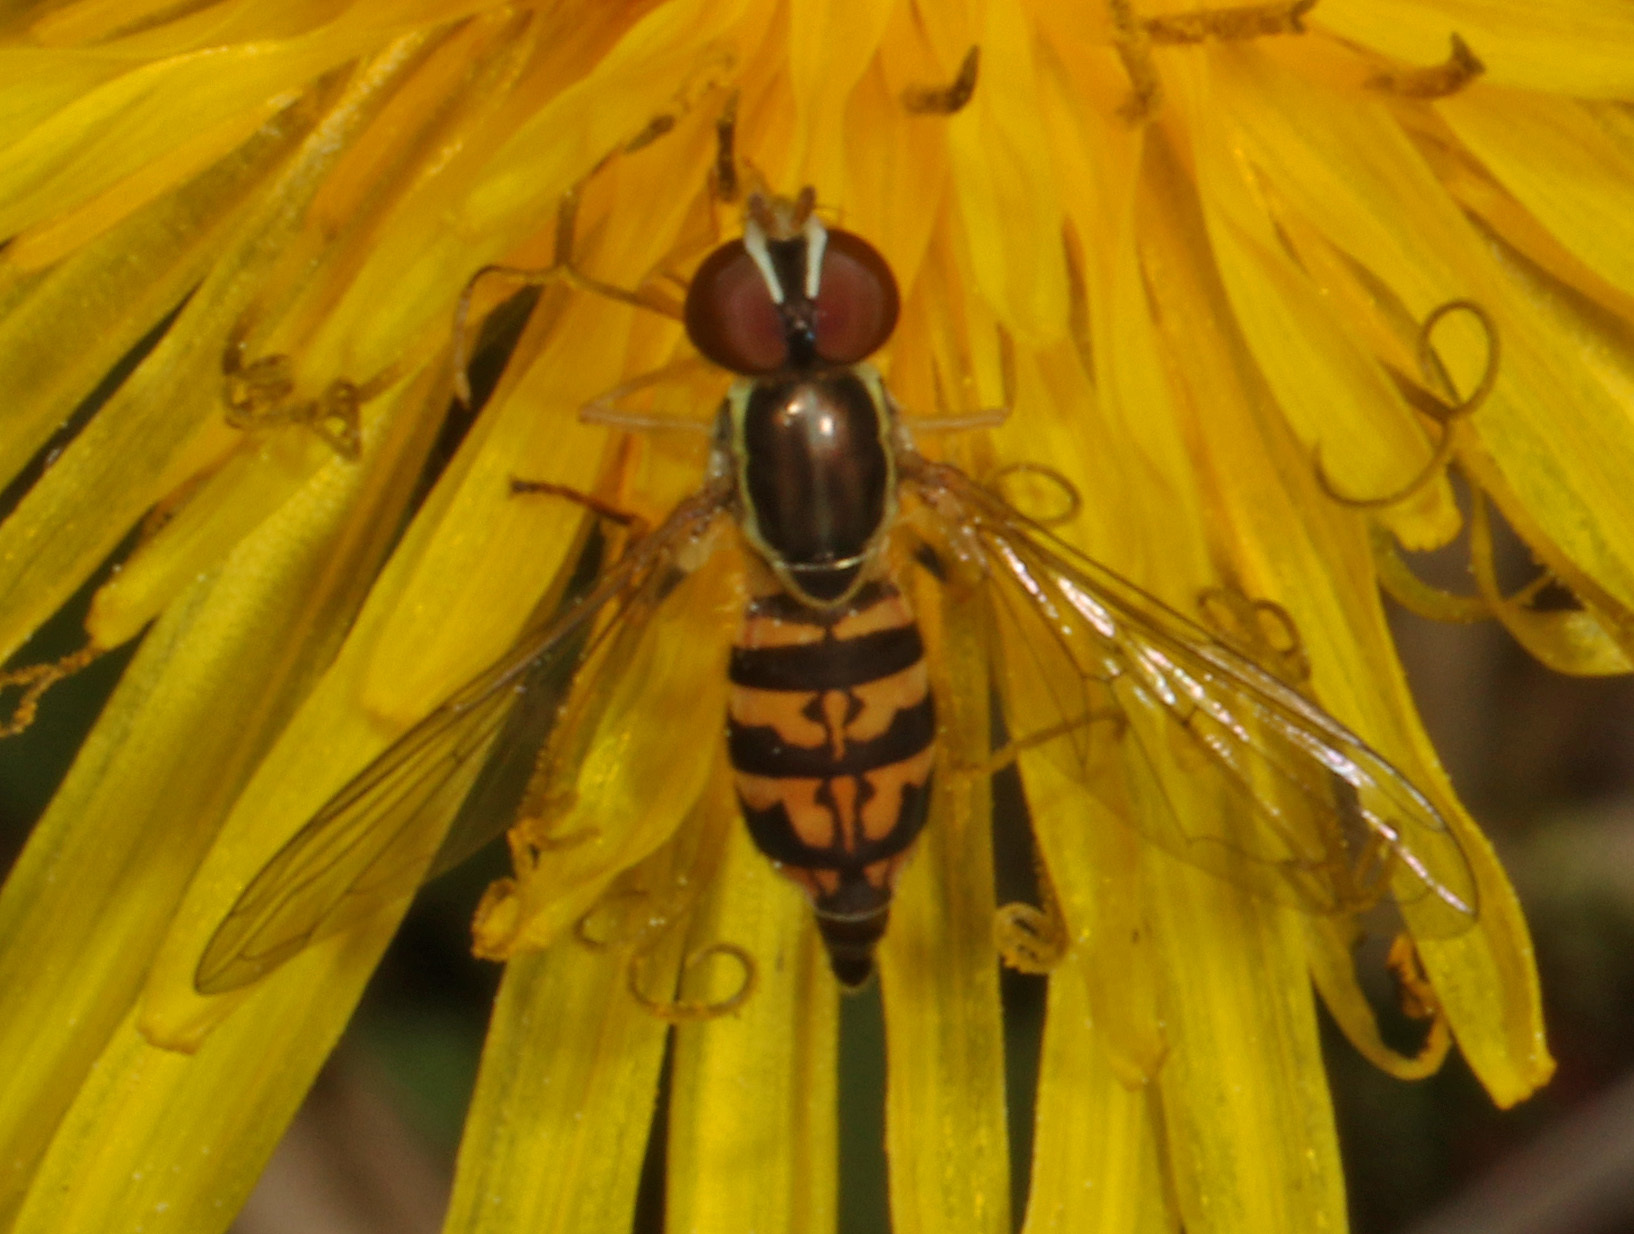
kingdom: Animalia
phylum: Arthropoda
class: Insecta
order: Diptera
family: Syrphidae
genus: Toxomerus
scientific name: Toxomerus geminatus
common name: Eastern calligrapher
